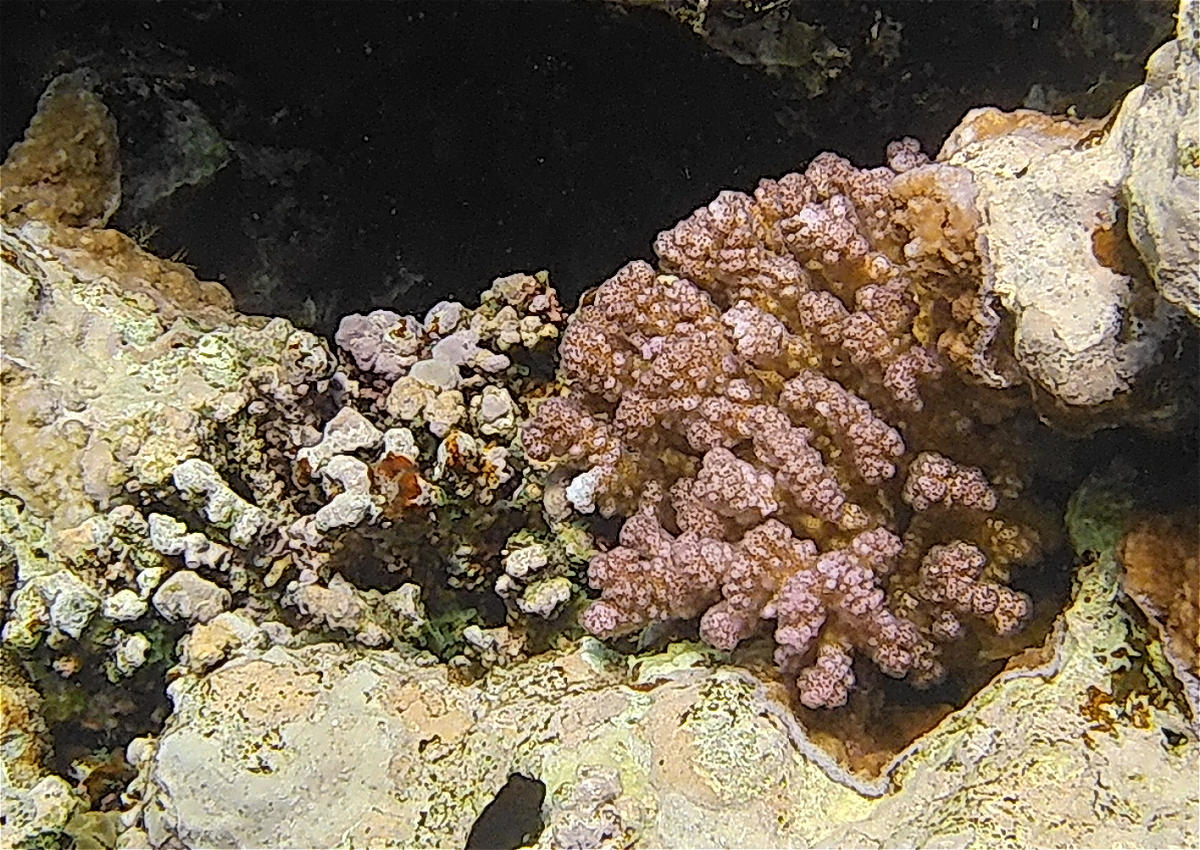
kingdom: Animalia
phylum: Cnidaria
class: Anthozoa
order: Scleractinia
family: Pocilloporidae
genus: Pocillopora
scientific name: Pocillopora verrucosa
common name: Cauliflower coral
